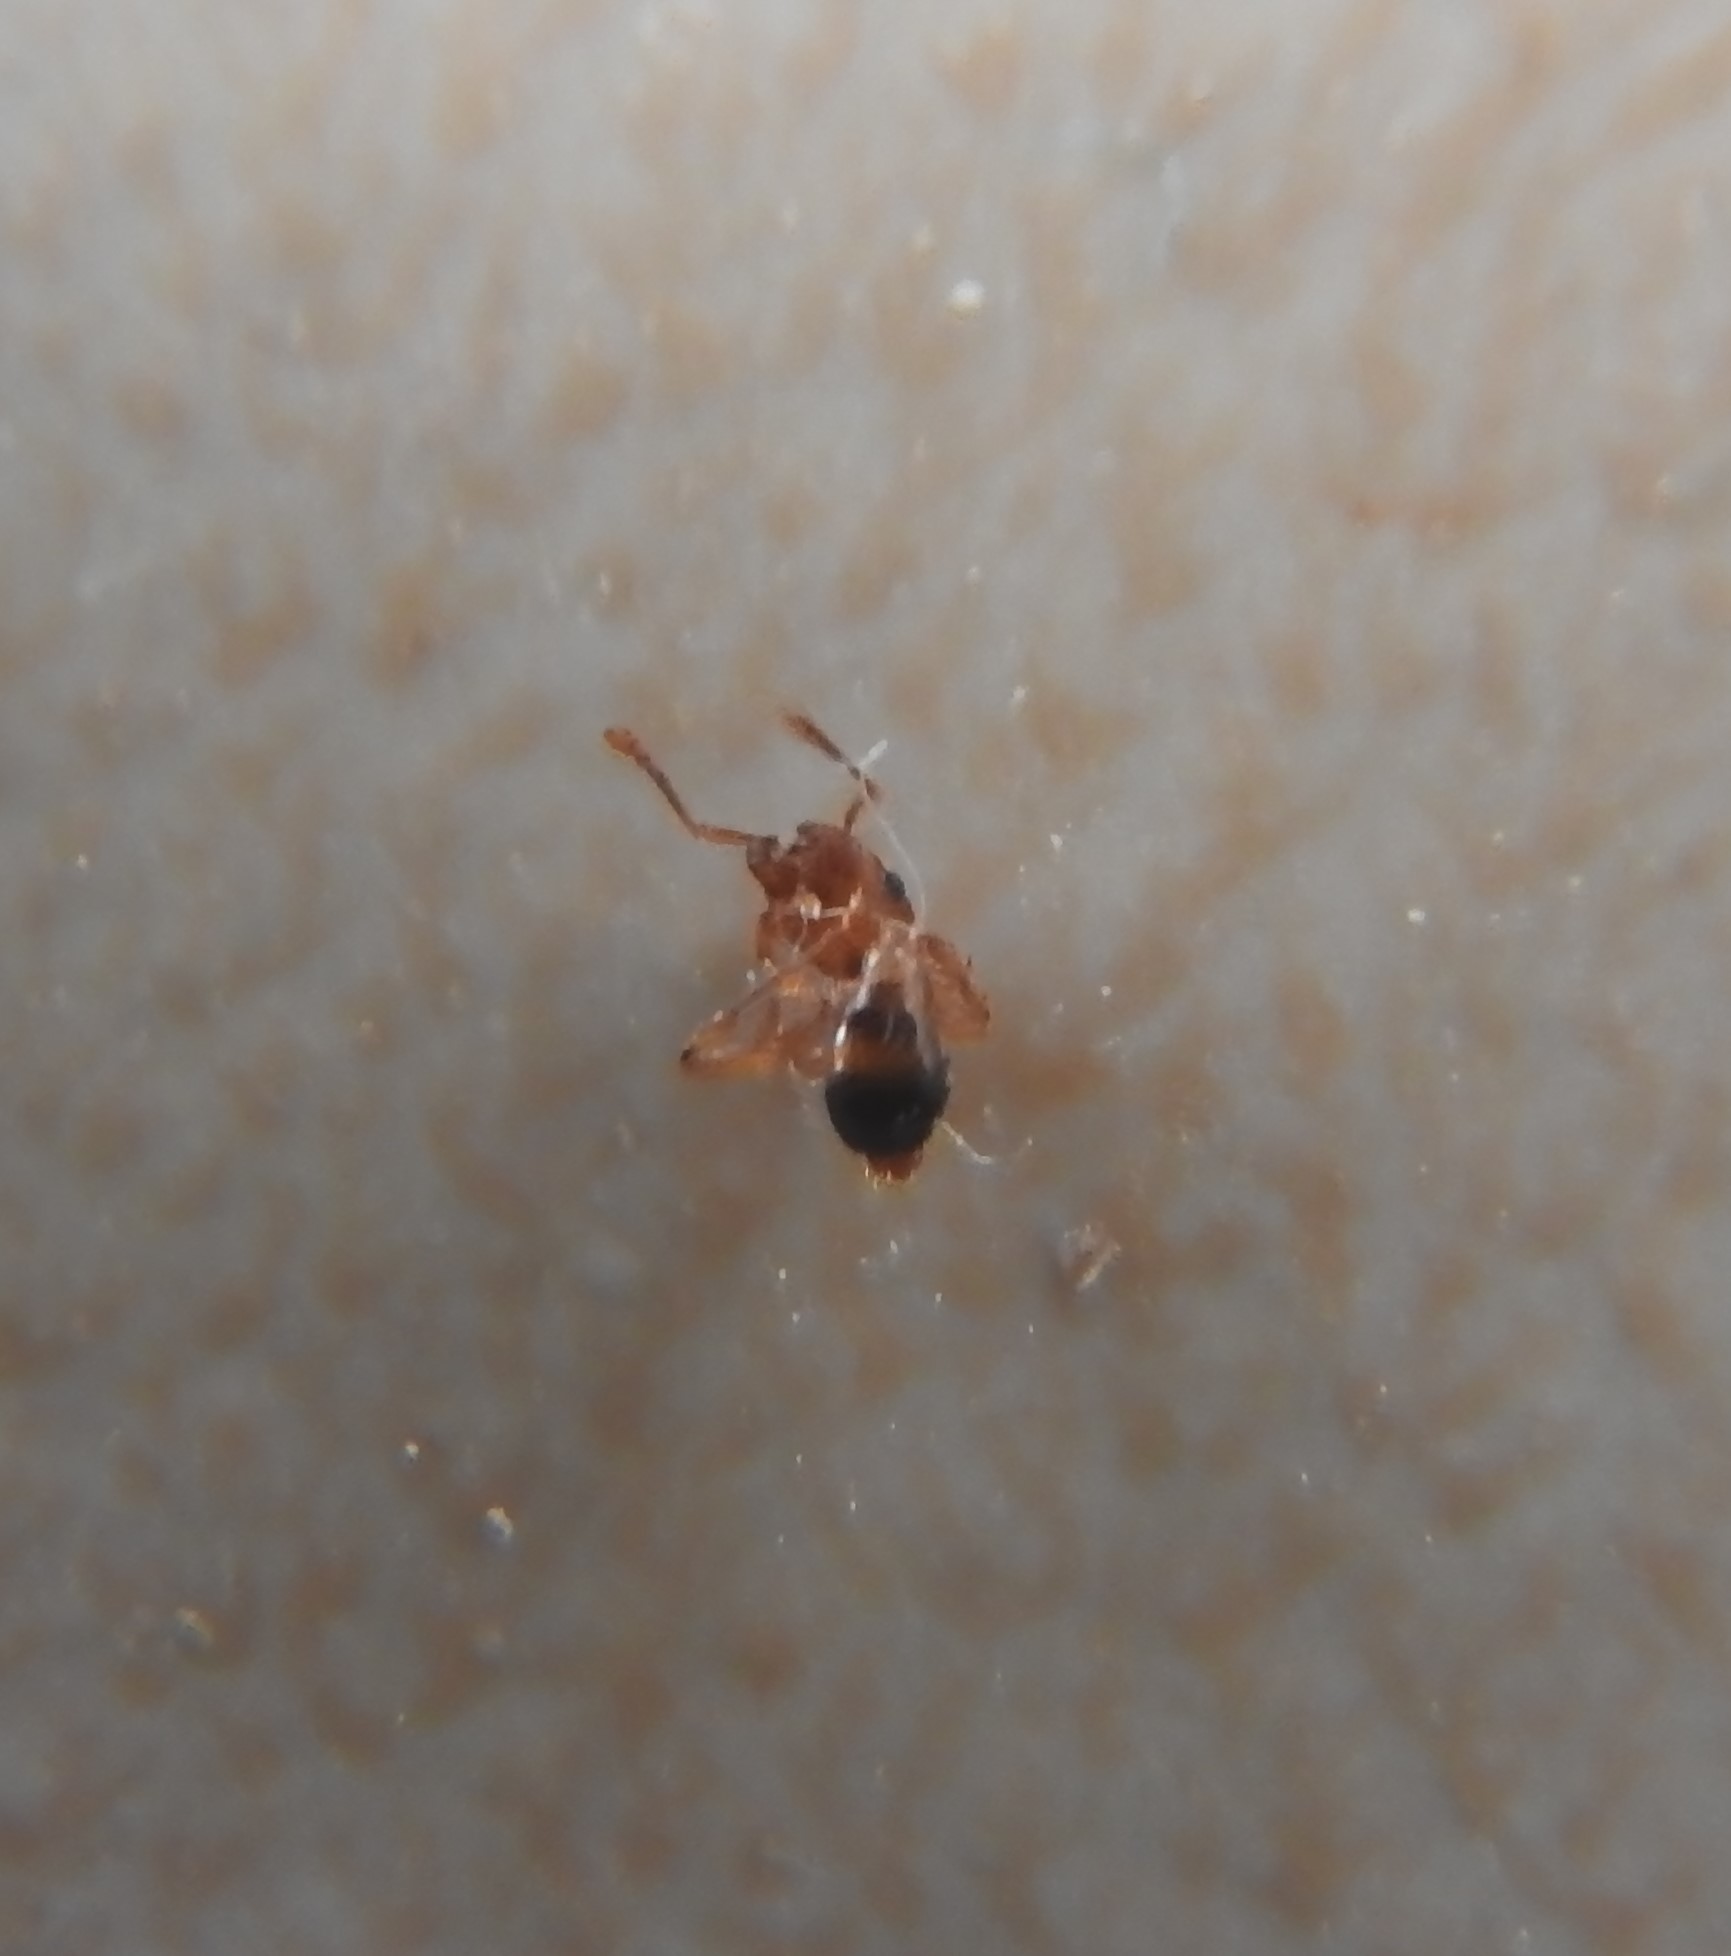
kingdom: Animalia
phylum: Arthropoda
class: Insecta
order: Hymenoptera
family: Formicidae
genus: Tetramorium
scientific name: Tetramorium bicarinatum
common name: Guinea ant
